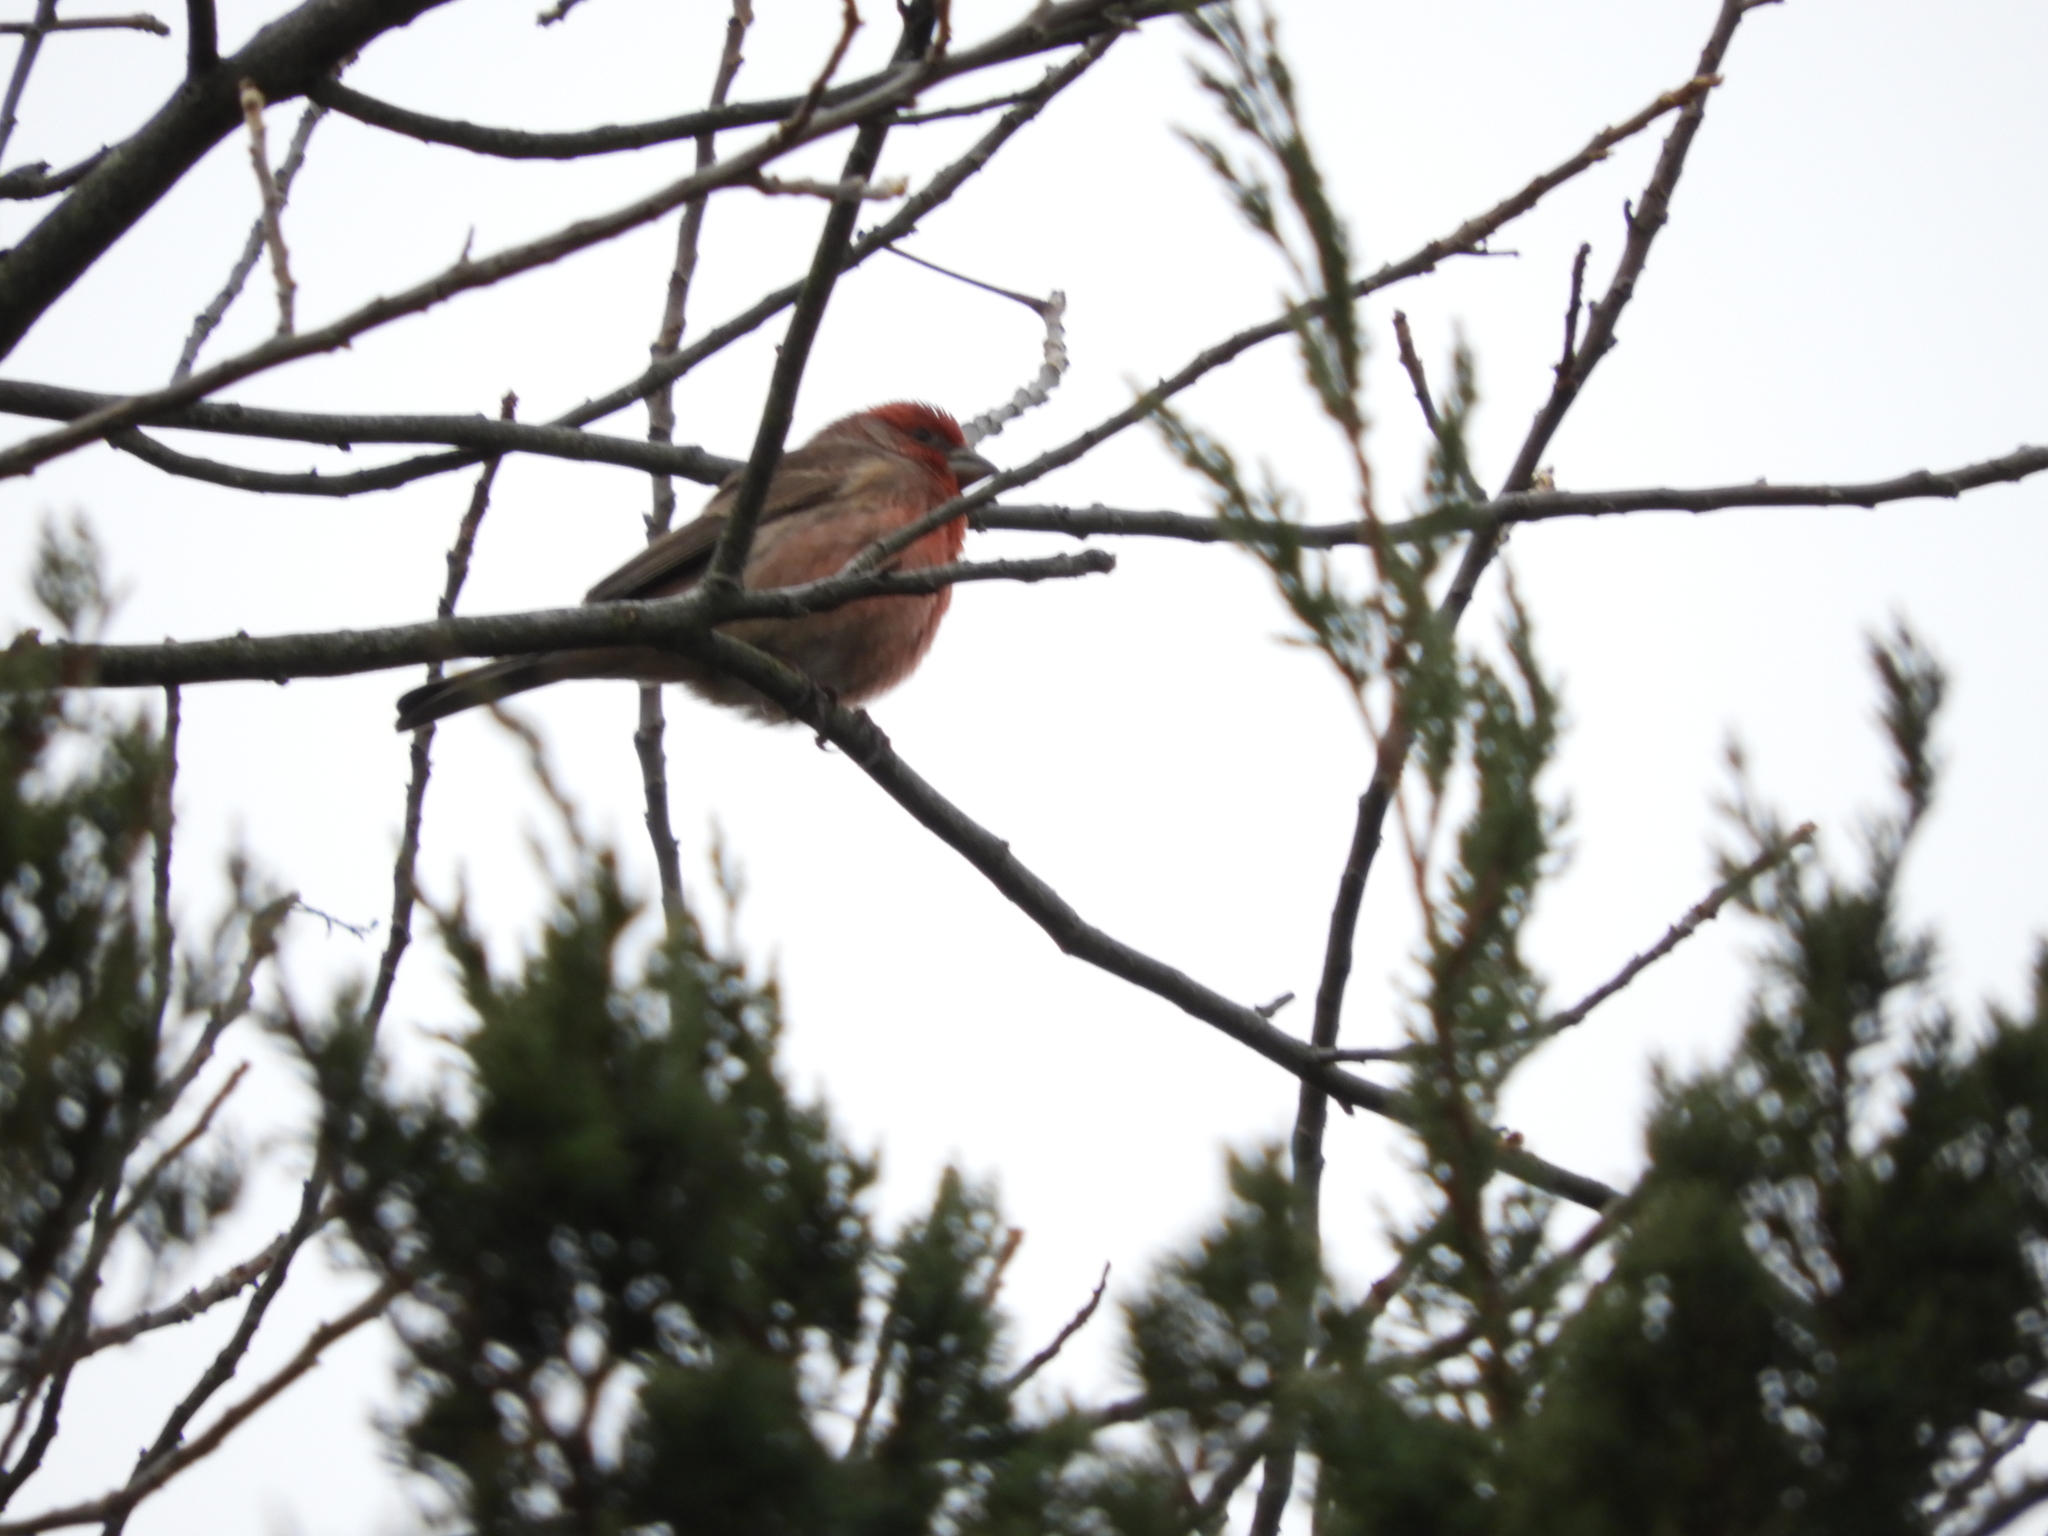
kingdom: Animalia
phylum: Chordata
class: Aves
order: Passeriformes
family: Fringillidae
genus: Haemorhous
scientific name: Haemorhous mexicanus
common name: House finch
